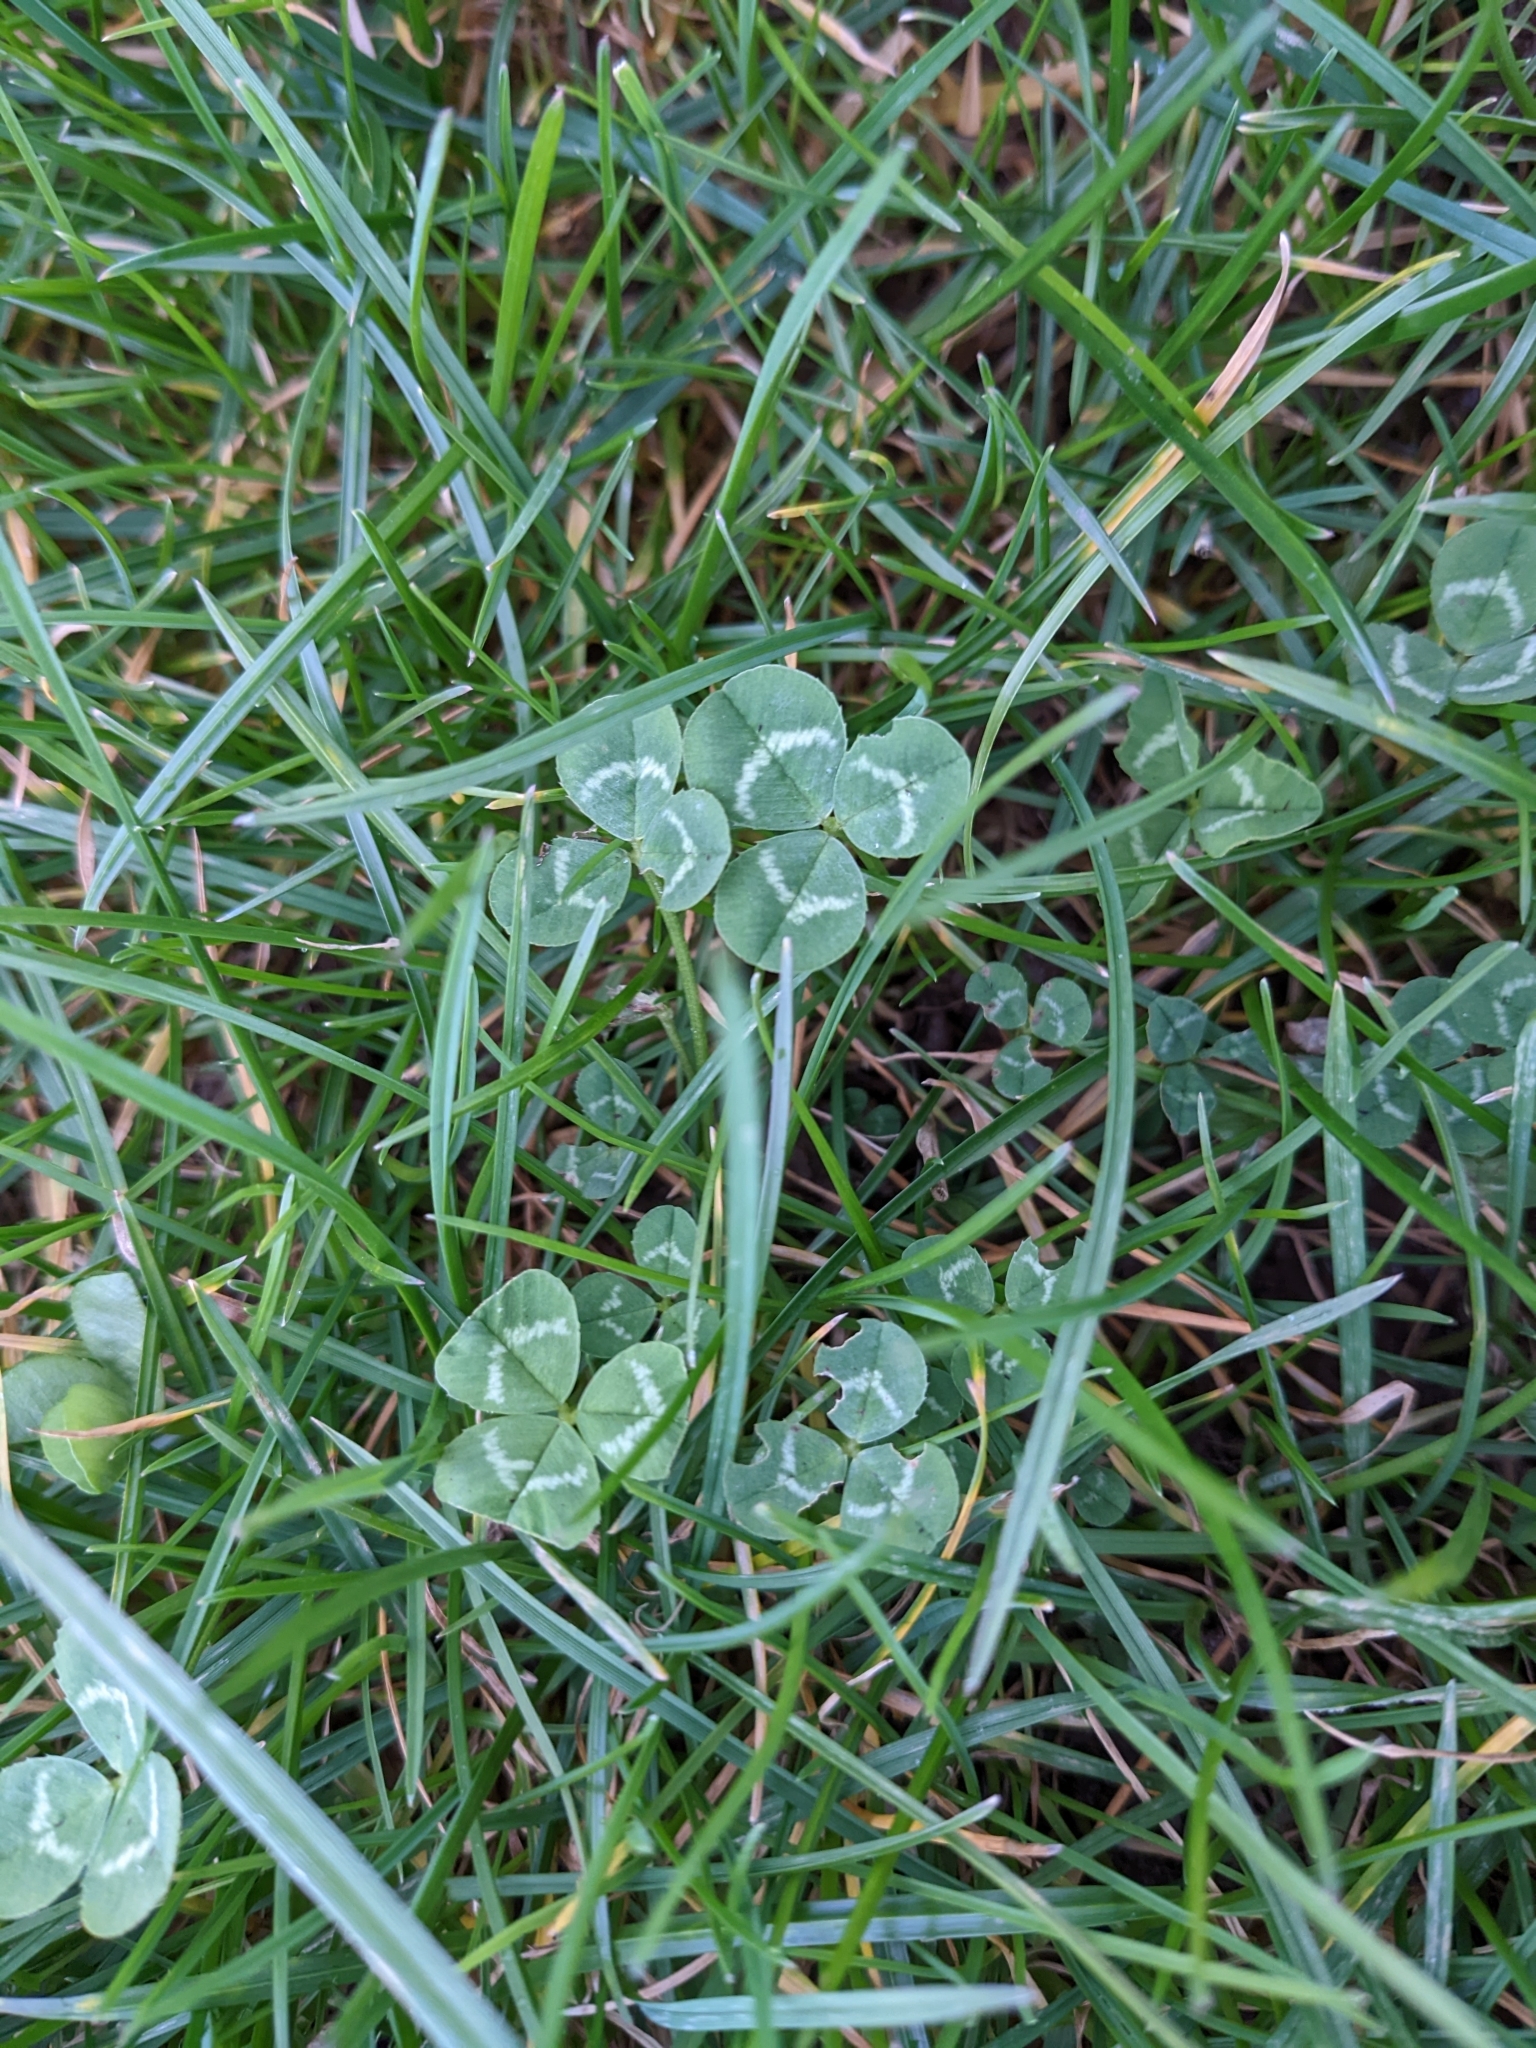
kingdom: Plantae
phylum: Tracheophyta
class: Magnoliopsida
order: Fabales
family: Fabaceae
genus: Trifolium
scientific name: Trifolium repens
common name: White clover
